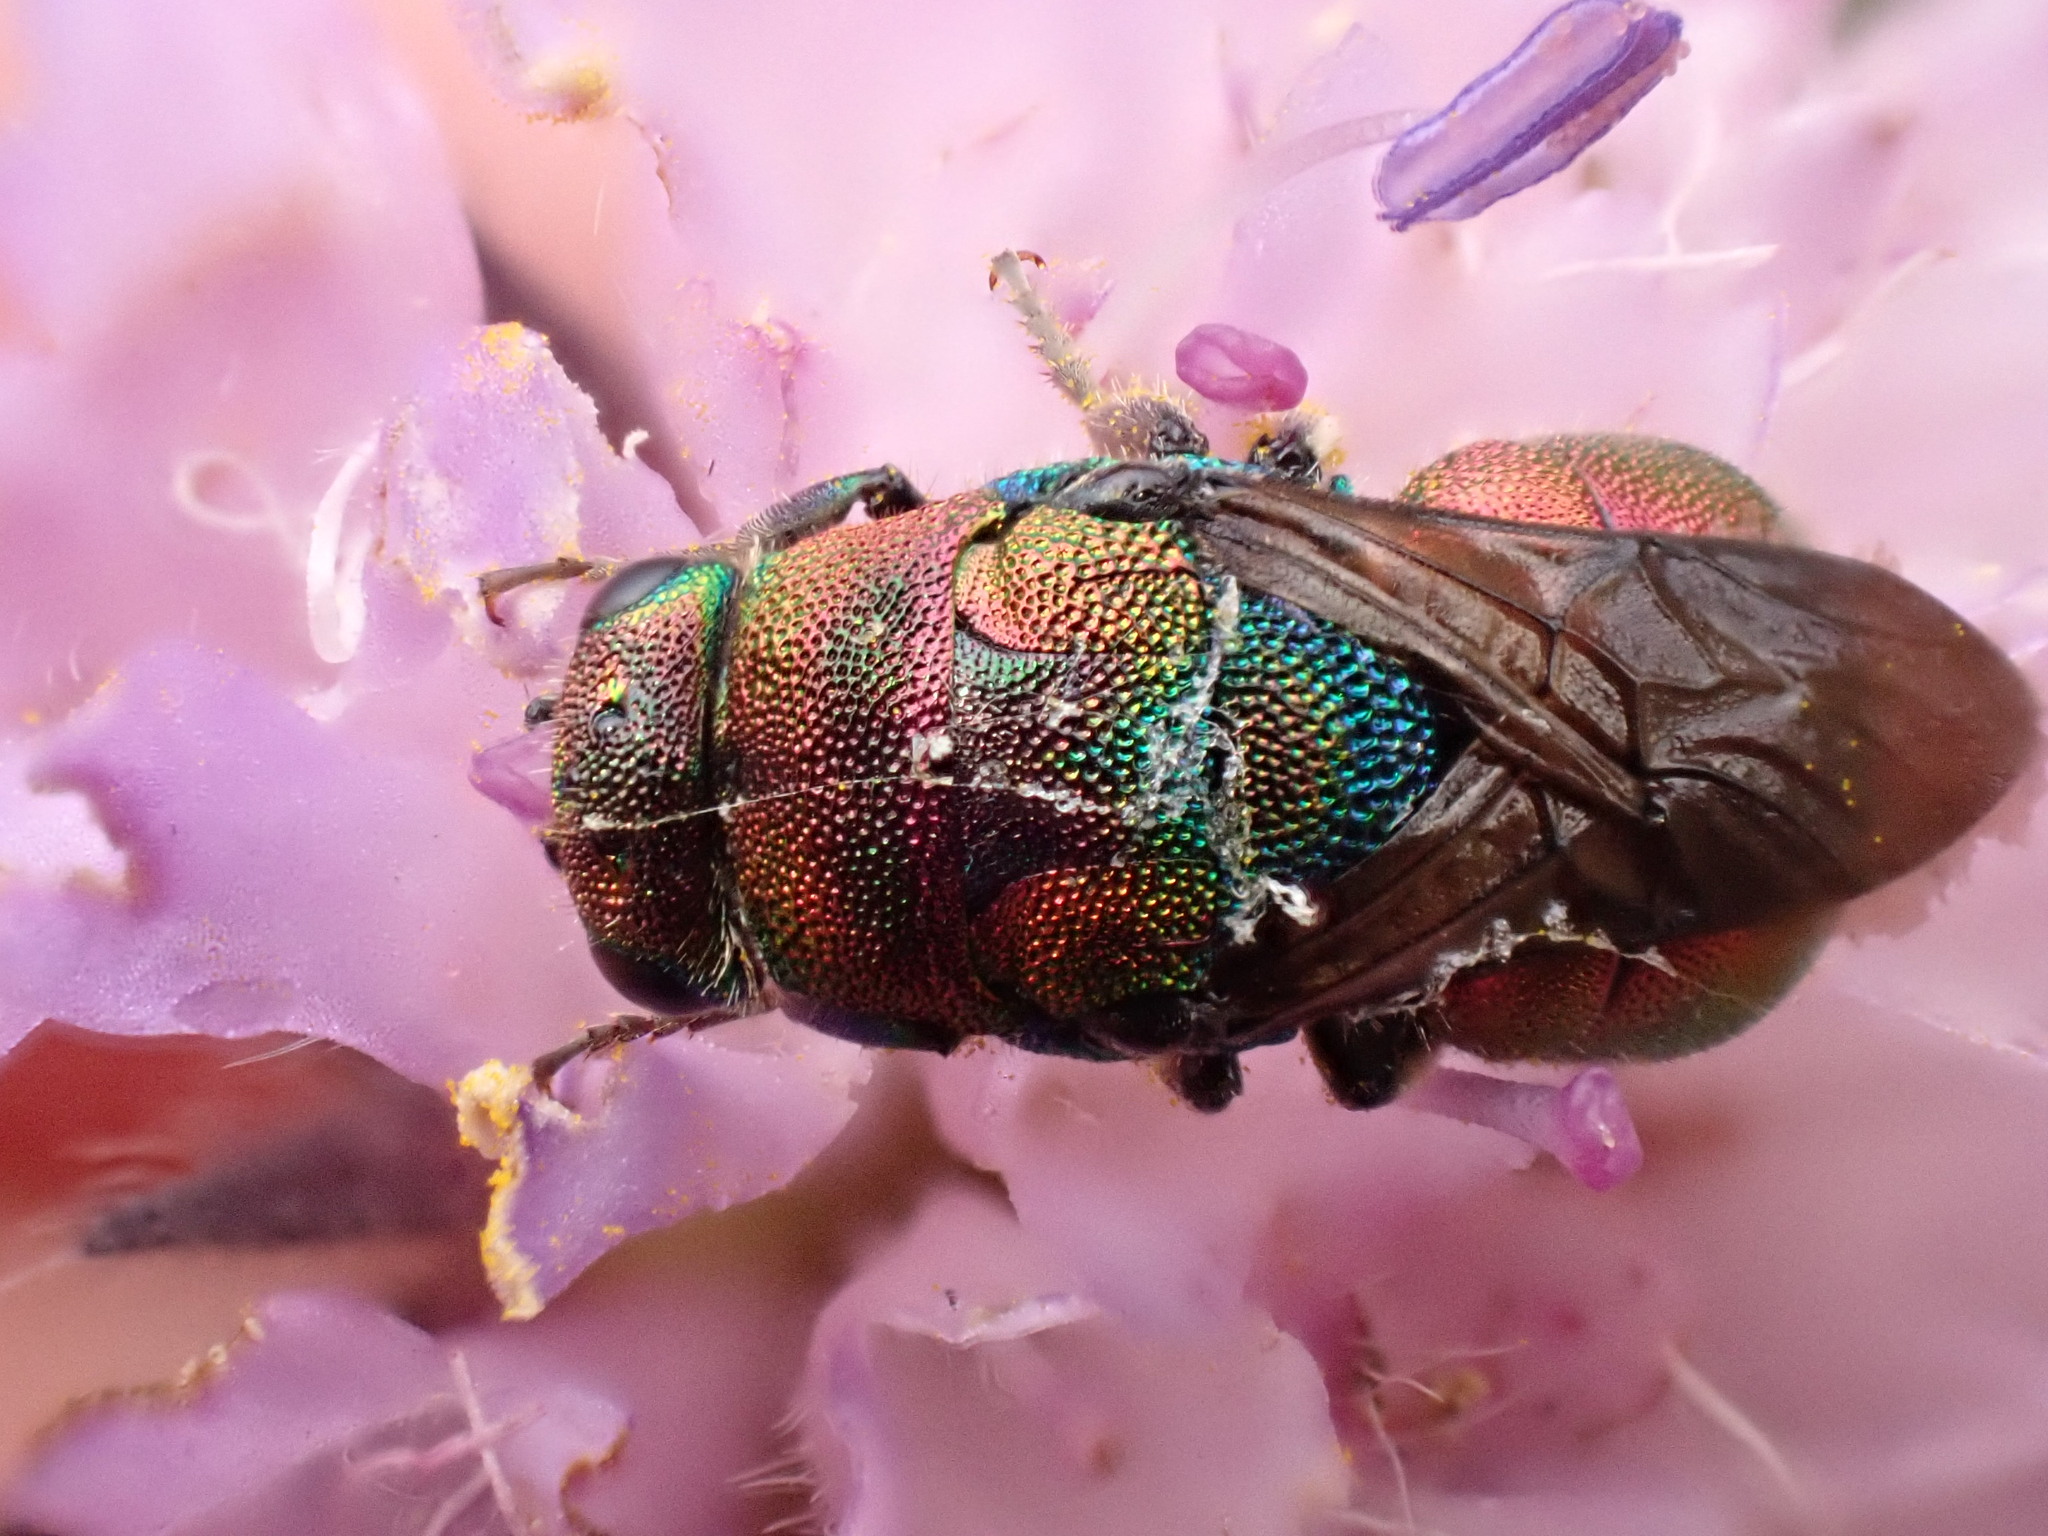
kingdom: Animalia
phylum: Arthropoda
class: Insecta
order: Hymenoptera
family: Chrysididae
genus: Hedychrum
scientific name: Hedychrum rutilans
